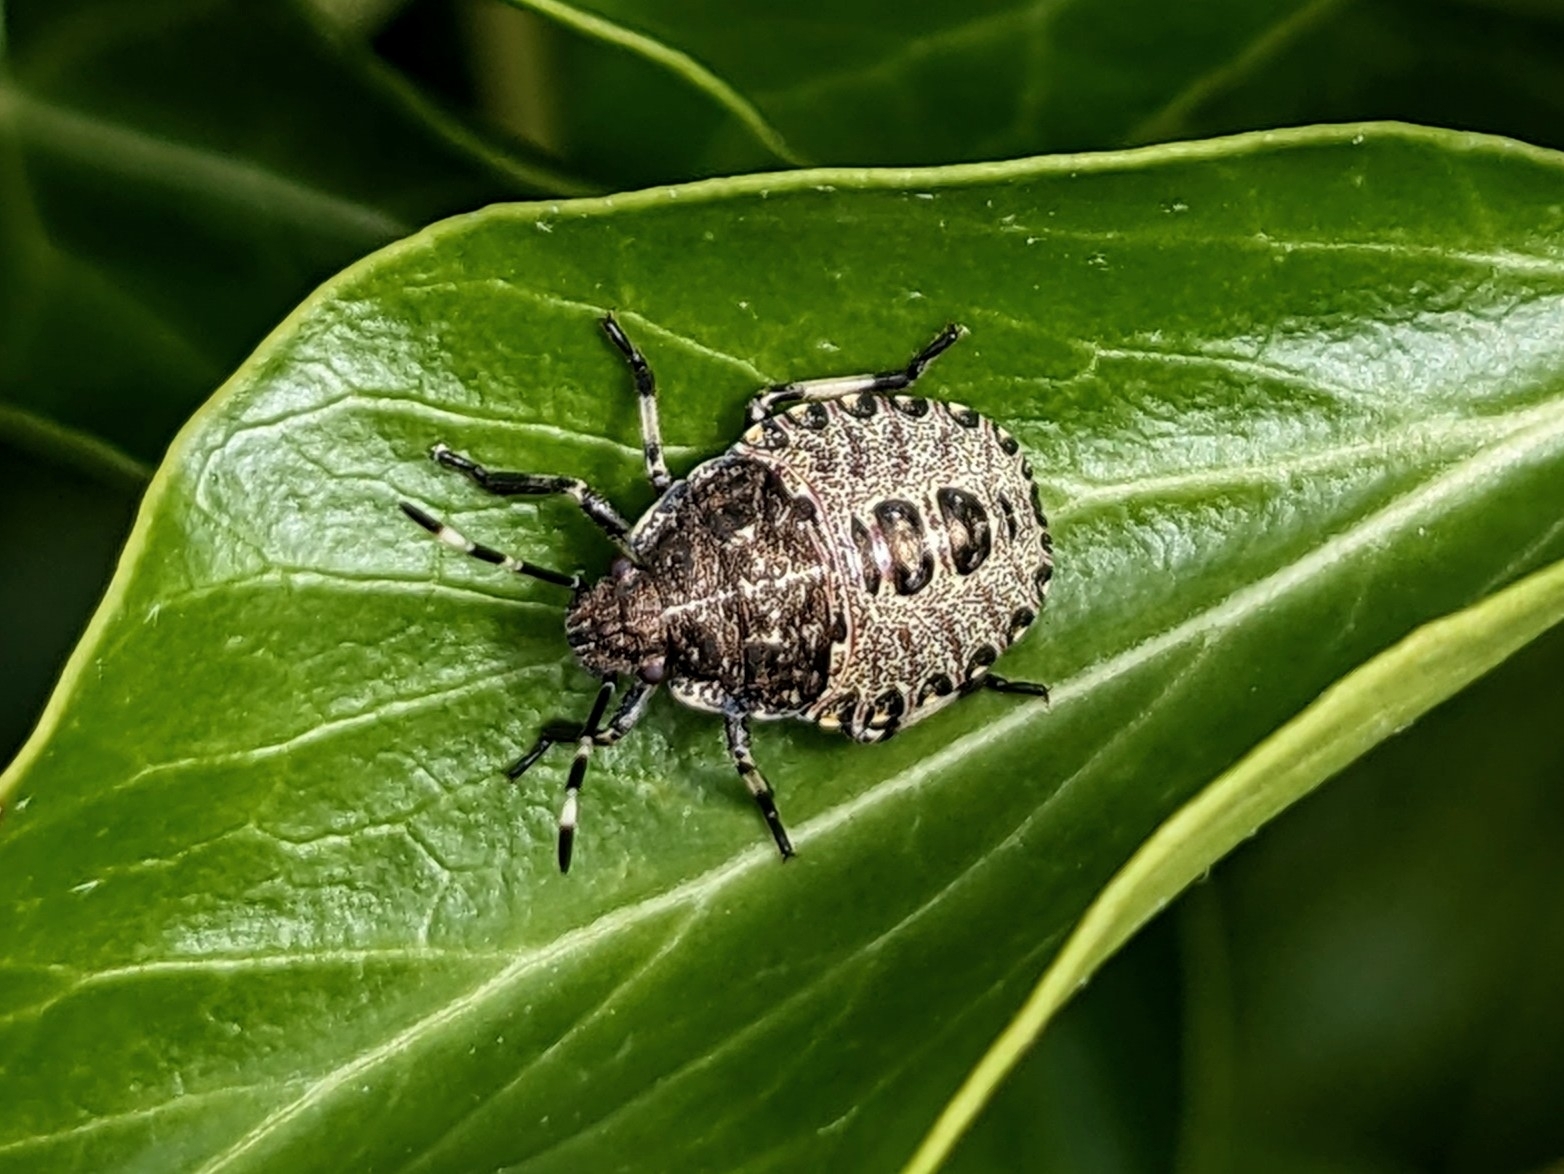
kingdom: Animalia
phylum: Arthropoda
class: Insecta
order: Hemiptera
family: Pentatomidae
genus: Rhaphigaster
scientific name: Rhaphigaster nebulosa
